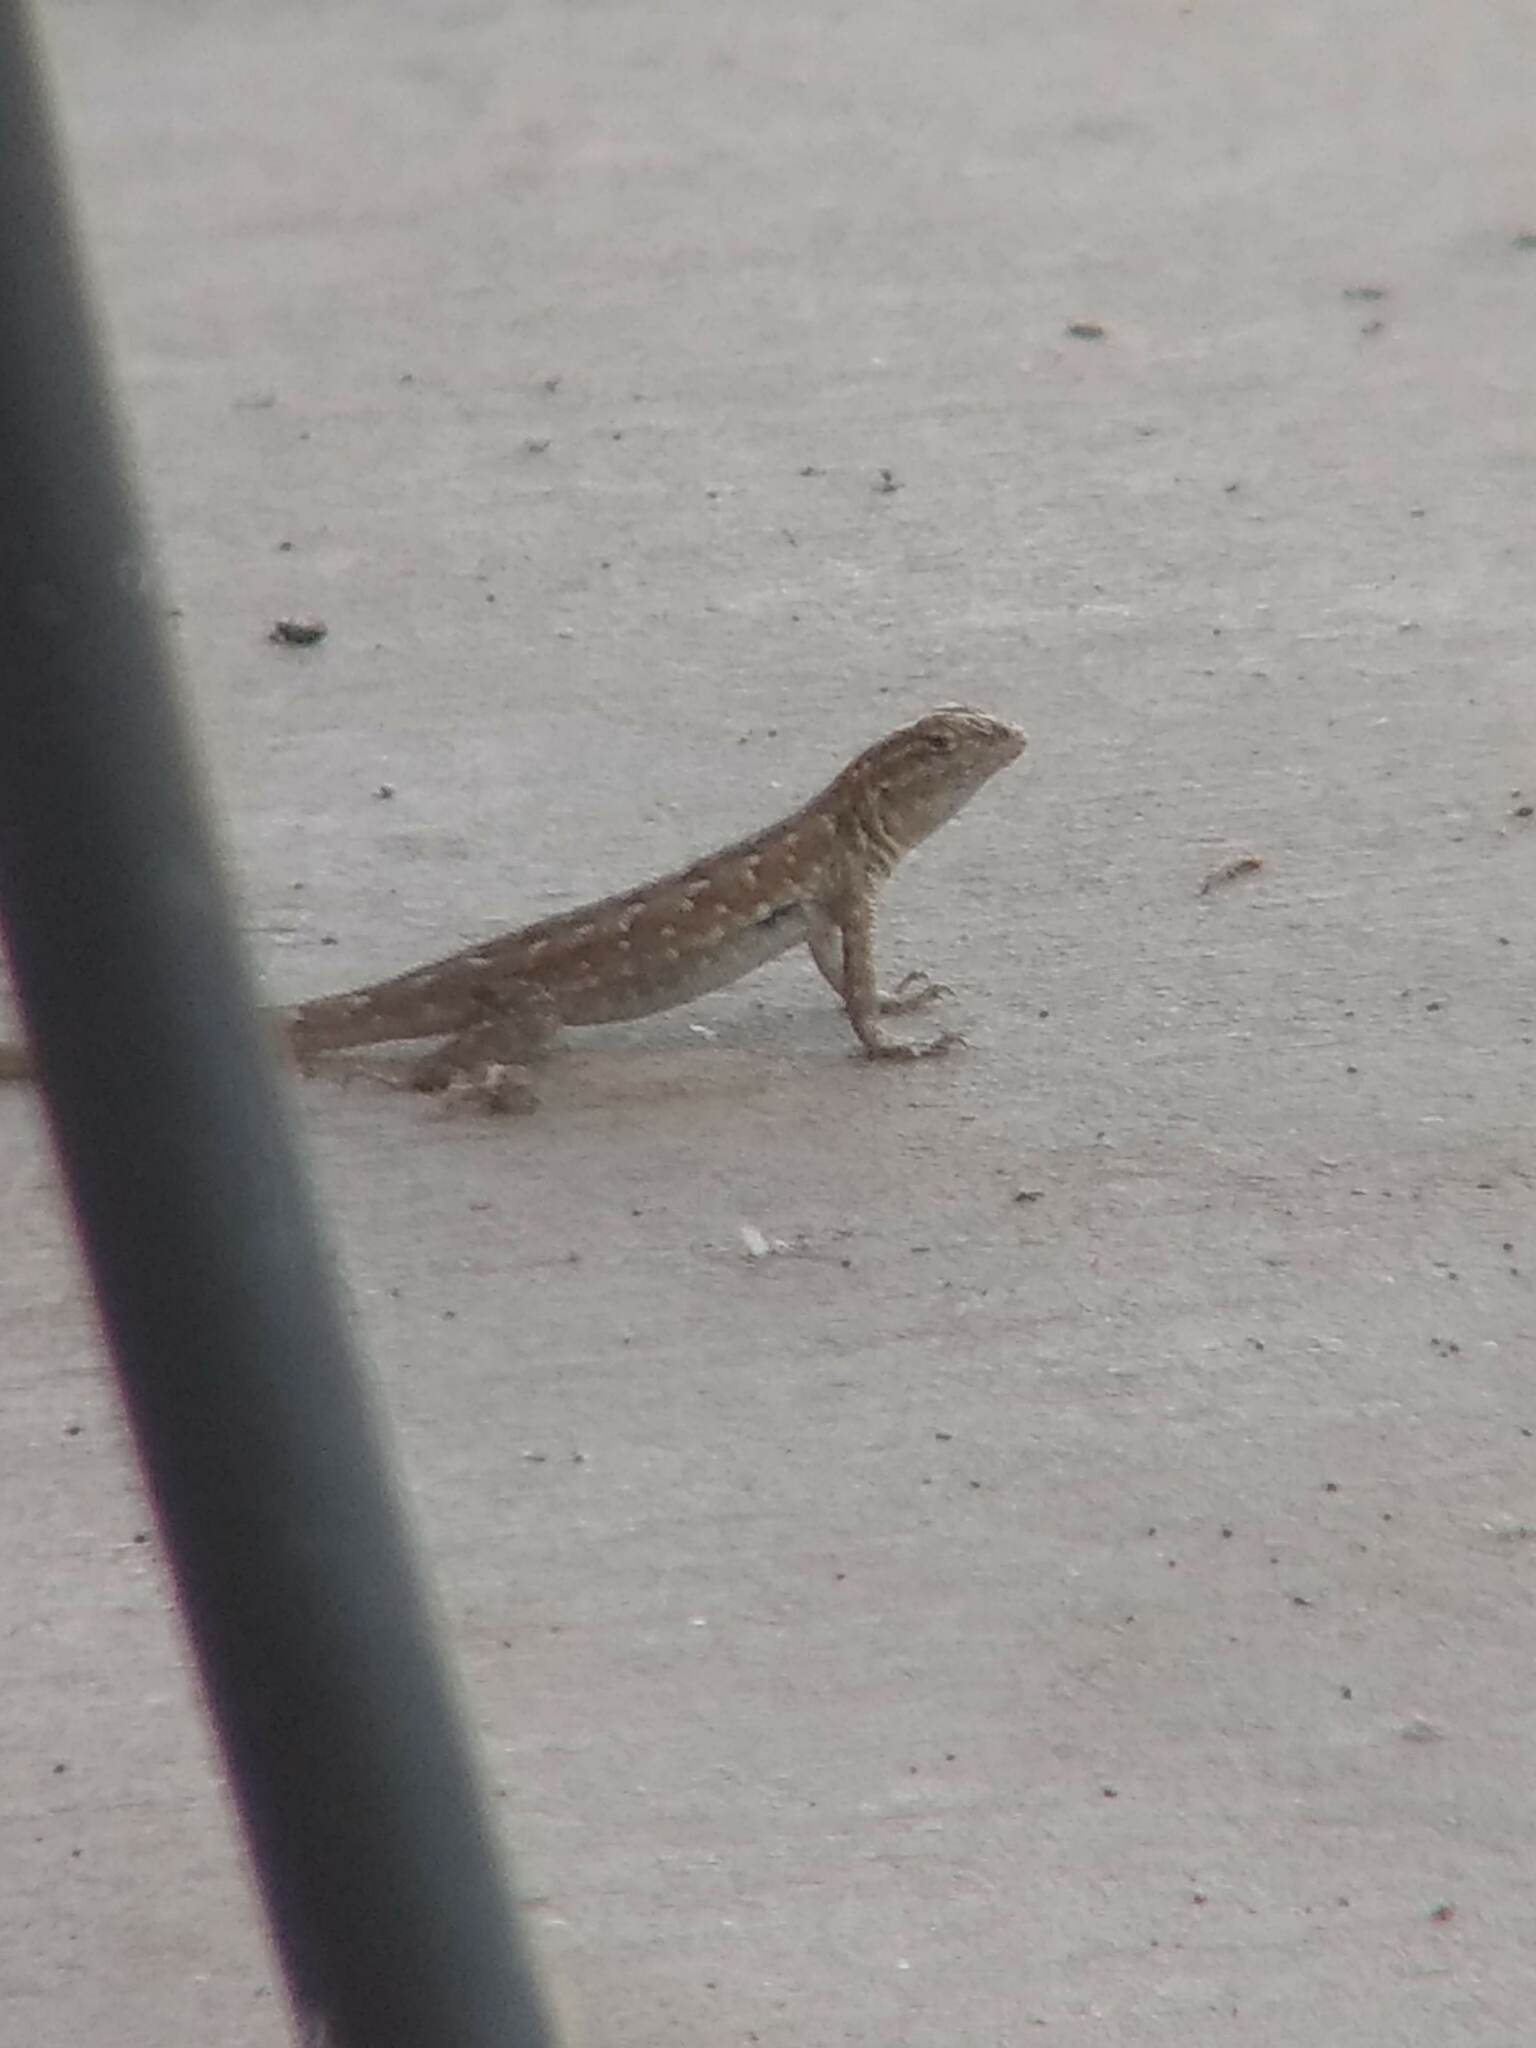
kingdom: Animalia
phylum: Chordata
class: Squamata
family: Phrynosomatidae
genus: Uta
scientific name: Uta stansburiana
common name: Side-blotched lizard
